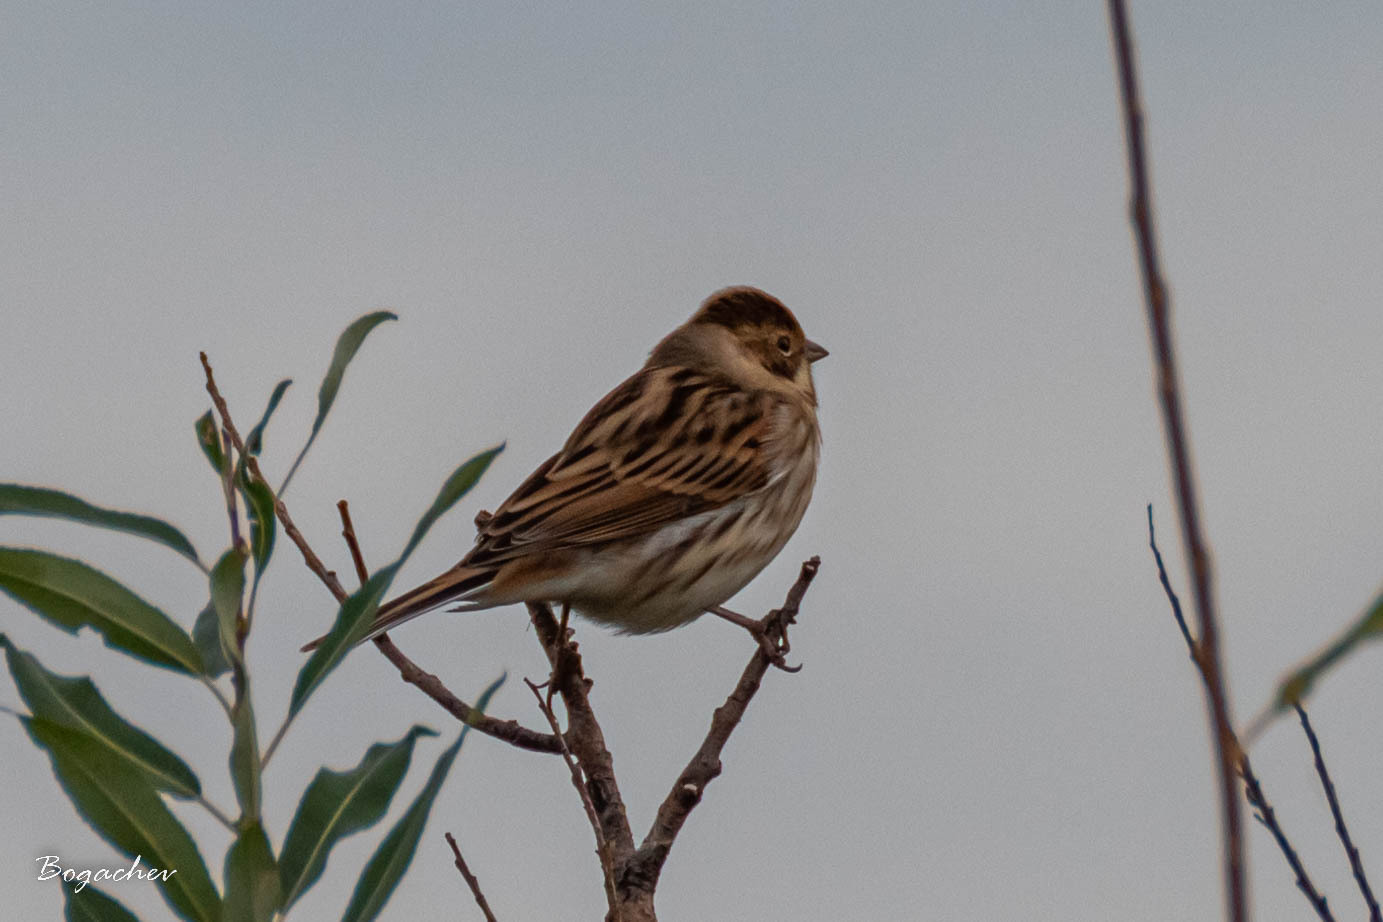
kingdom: Animalia
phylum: Chordata
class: Aves
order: Passeriformes
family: Emberizidae
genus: Emberiza
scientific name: Emberiza schoeniclus
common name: Reed bunting
